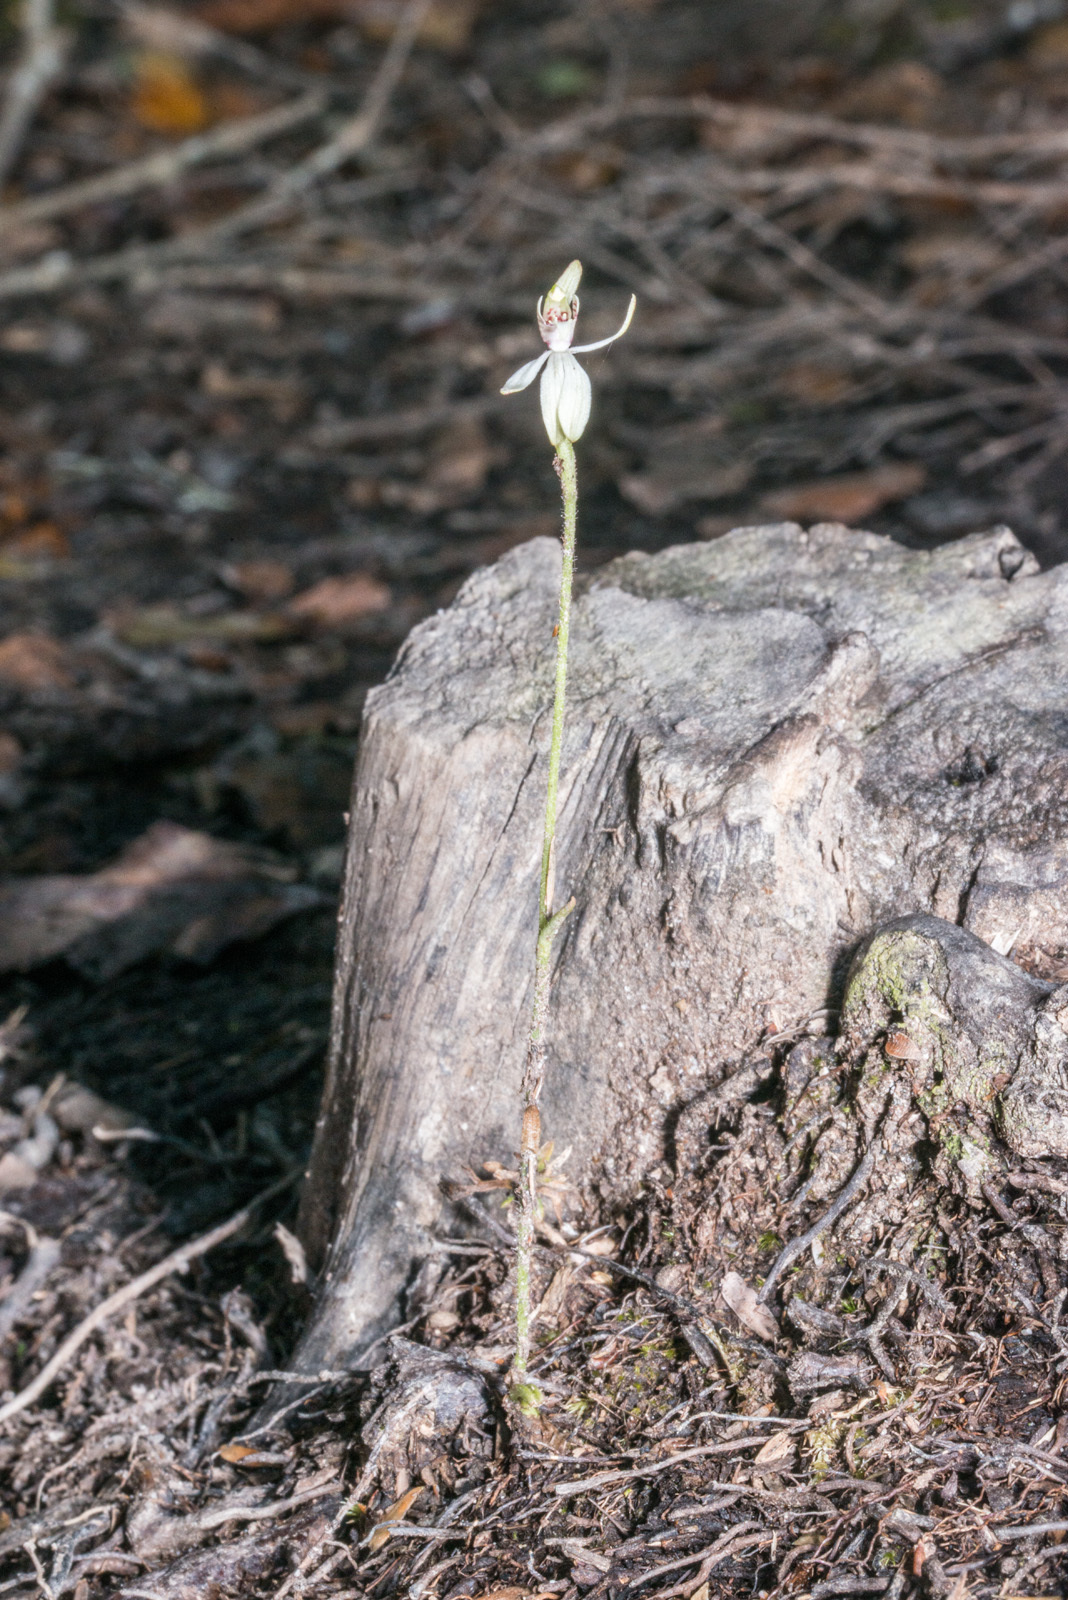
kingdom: Plantae
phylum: Tracheophyta
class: Liliopsida
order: Asparagales
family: Orchidaceae
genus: Caladenia
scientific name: Caladenia chlorostyla
